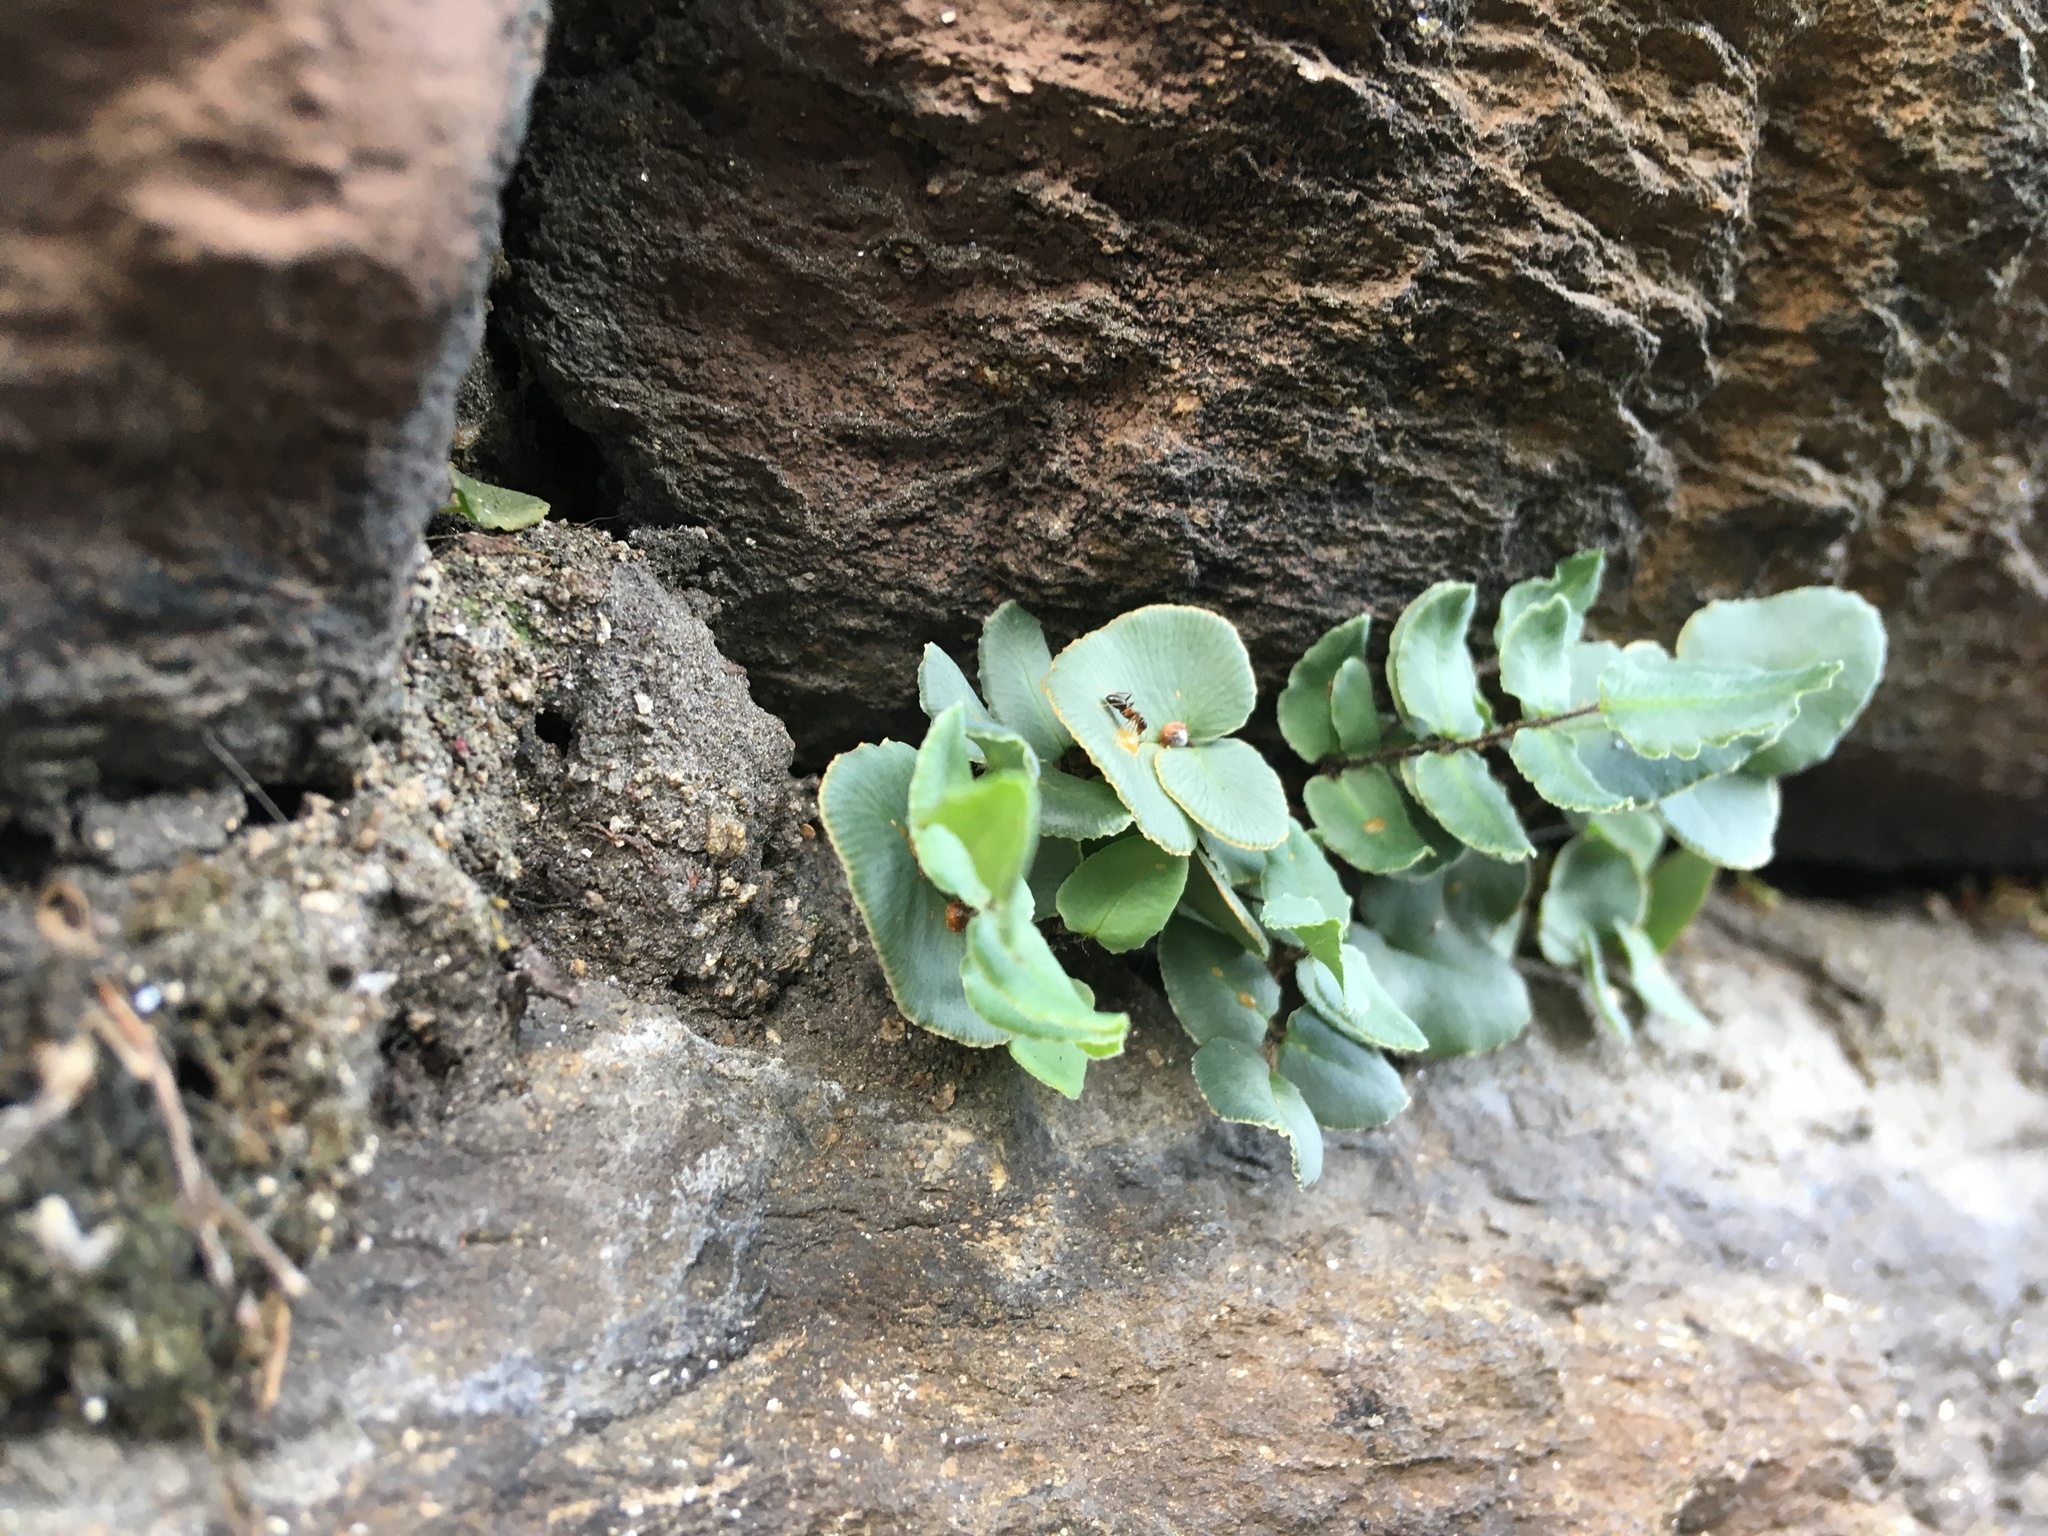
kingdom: Plantae
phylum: Tracheophyta
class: Polypodiopsida
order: Polypodiales
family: Pteridaceae
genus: Pellaea
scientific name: Pellaea atropurpurea
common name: Hairy cliffbrake
